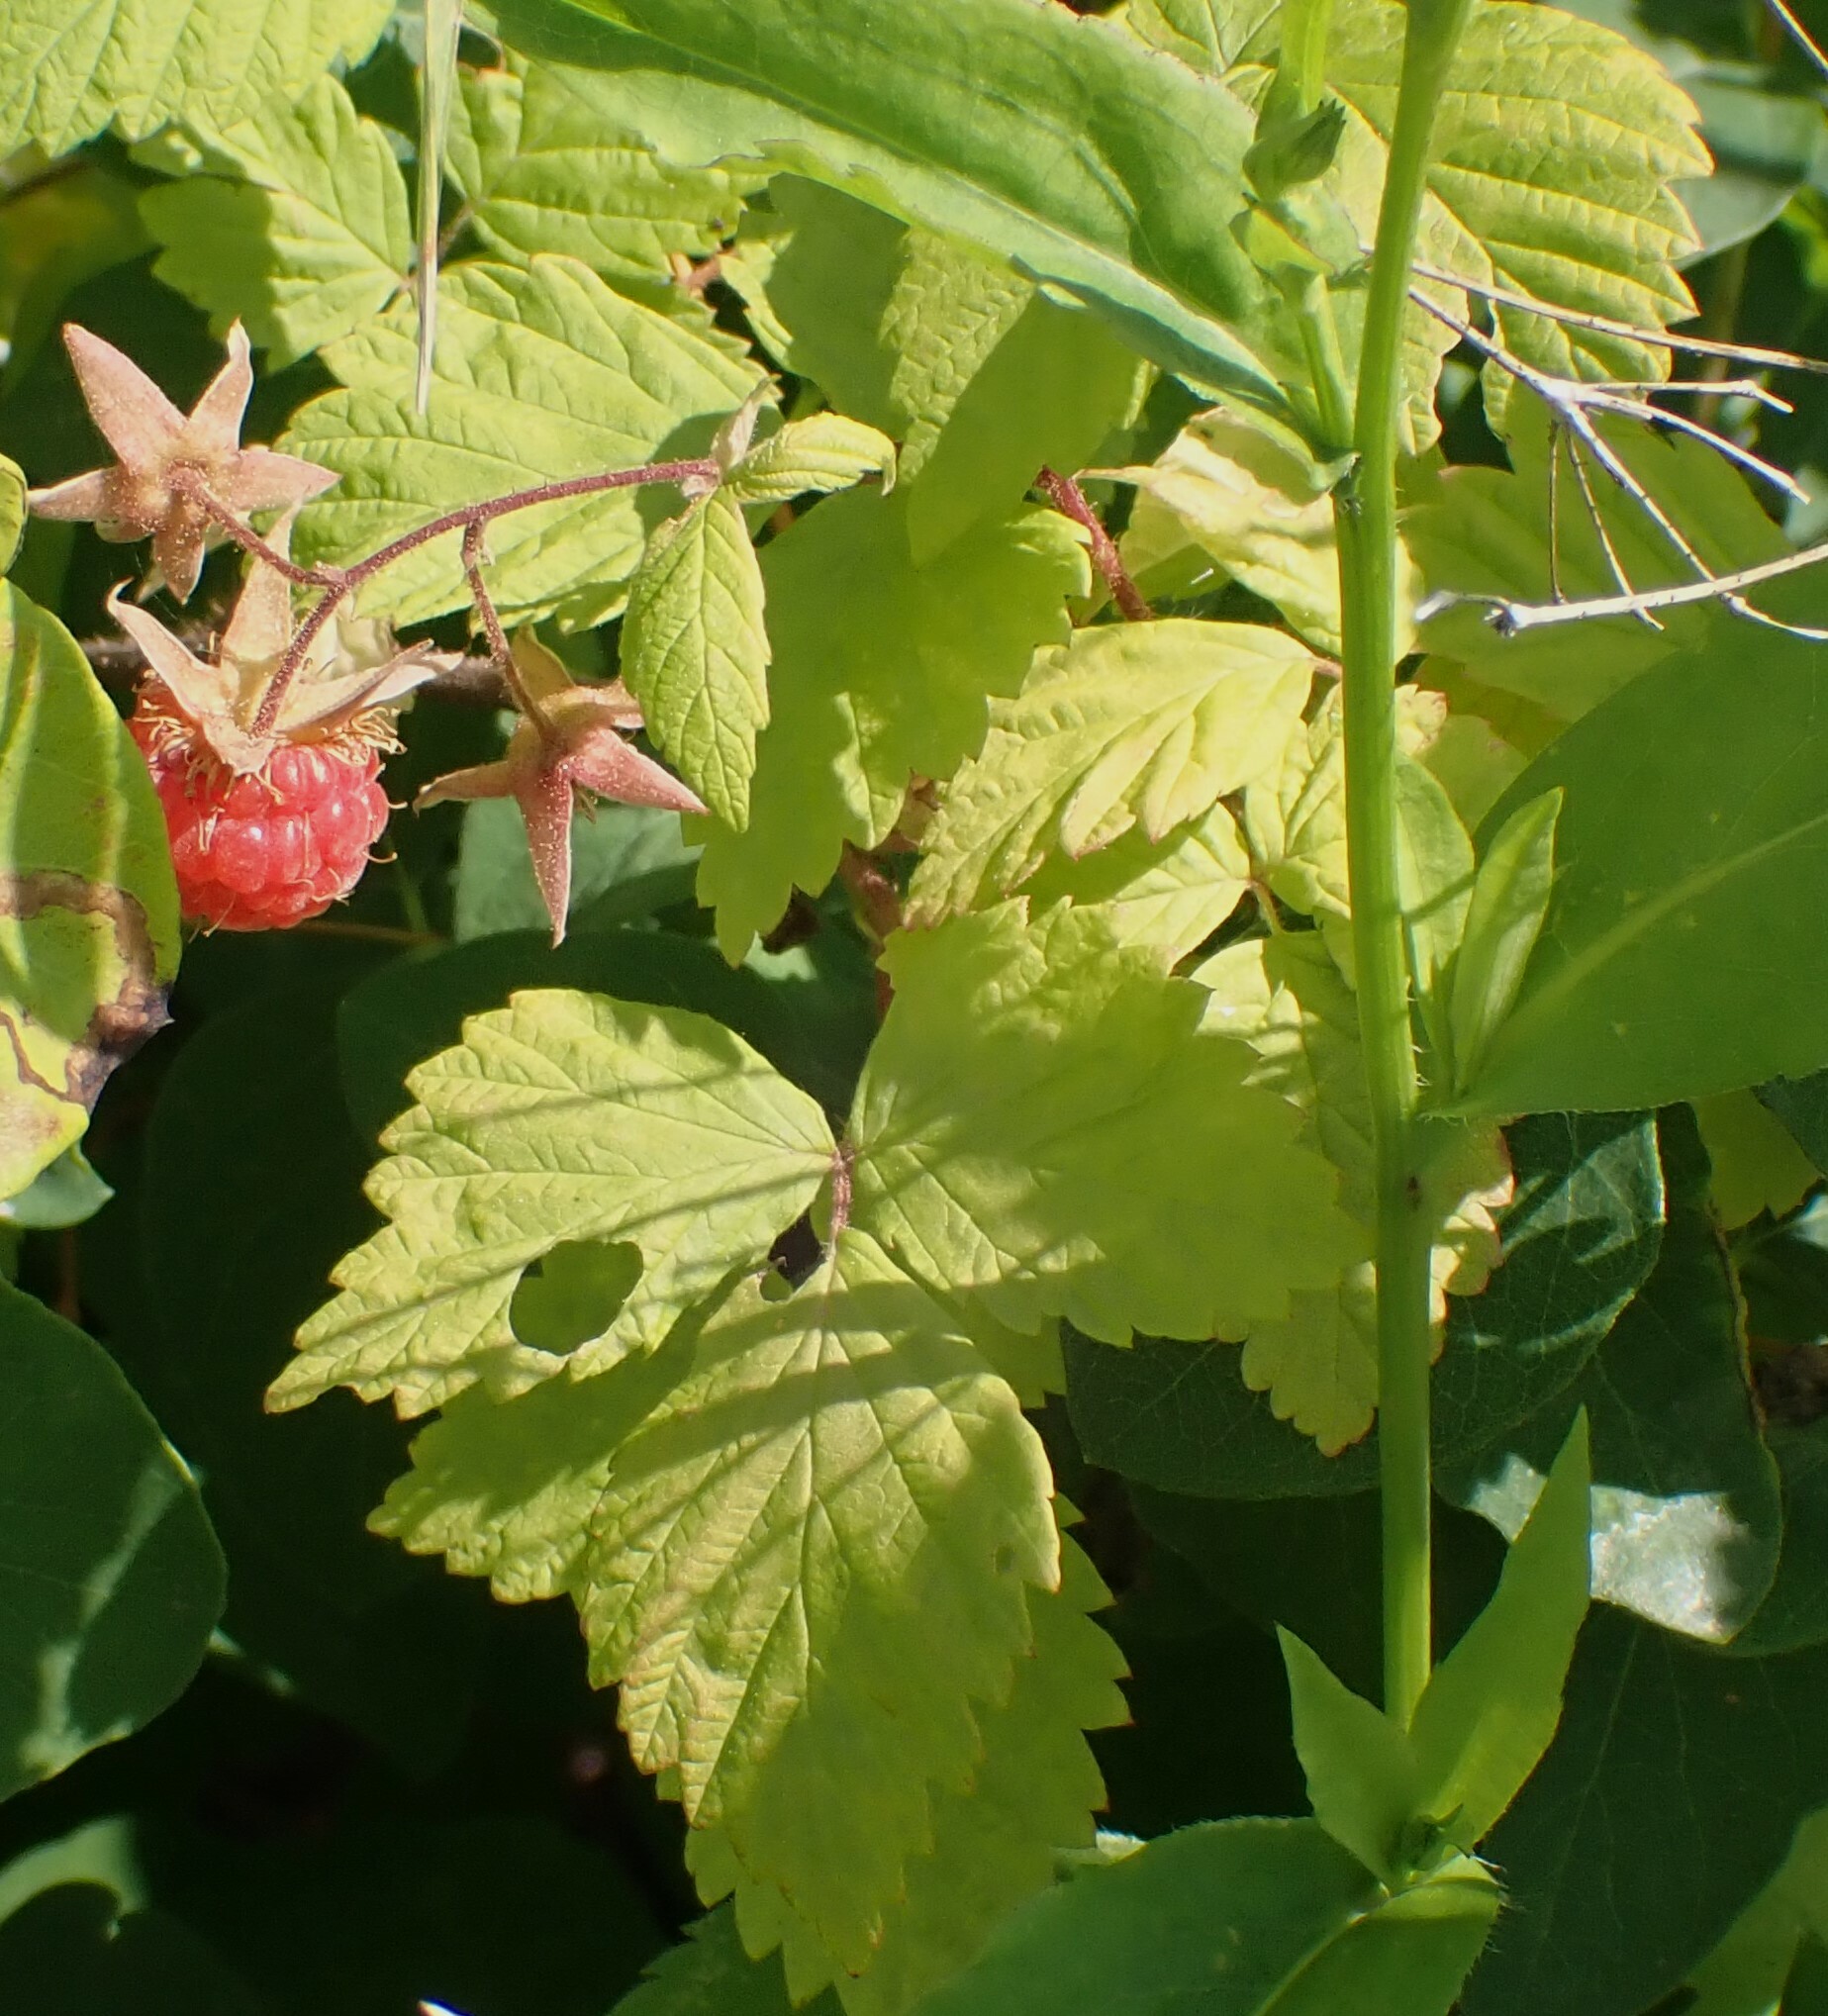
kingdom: Plantae
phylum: Tracheophyta
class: Magnoliopsida
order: Rosales
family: Rosaceae
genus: Rubus
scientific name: Rubus idaeus
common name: Raspberry
